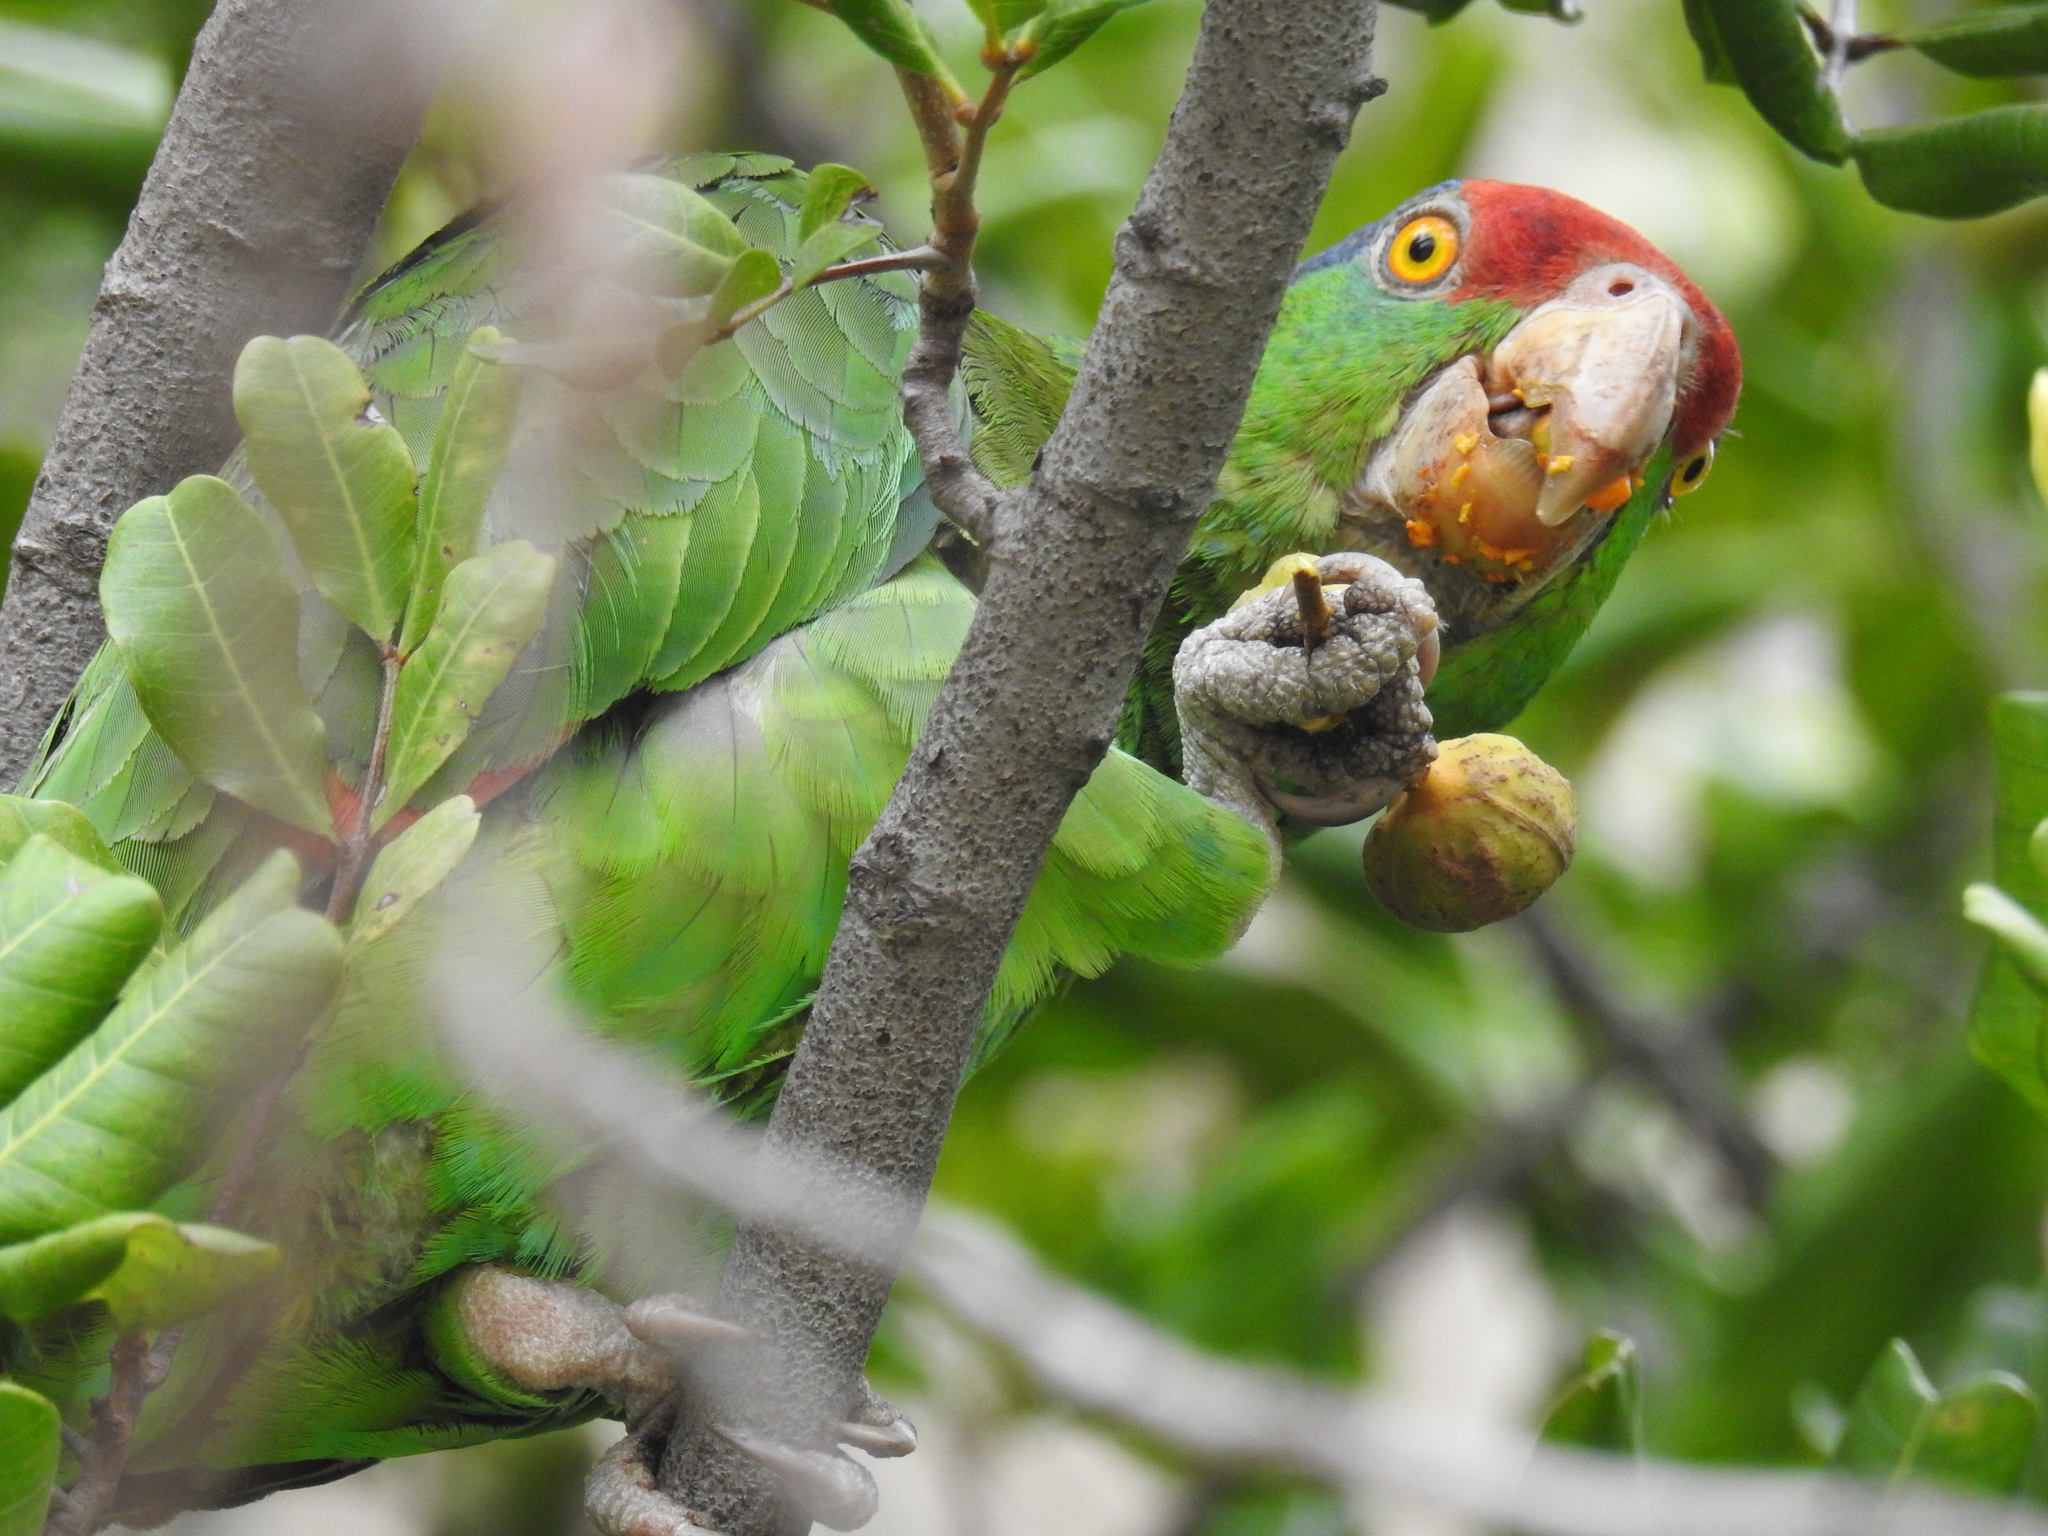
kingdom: Animalia
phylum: Chordata
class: Aves
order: Psittaciformes
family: Psittacidae
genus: Amazona
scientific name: Amazona viridigenalis
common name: Red-crowned amazon
